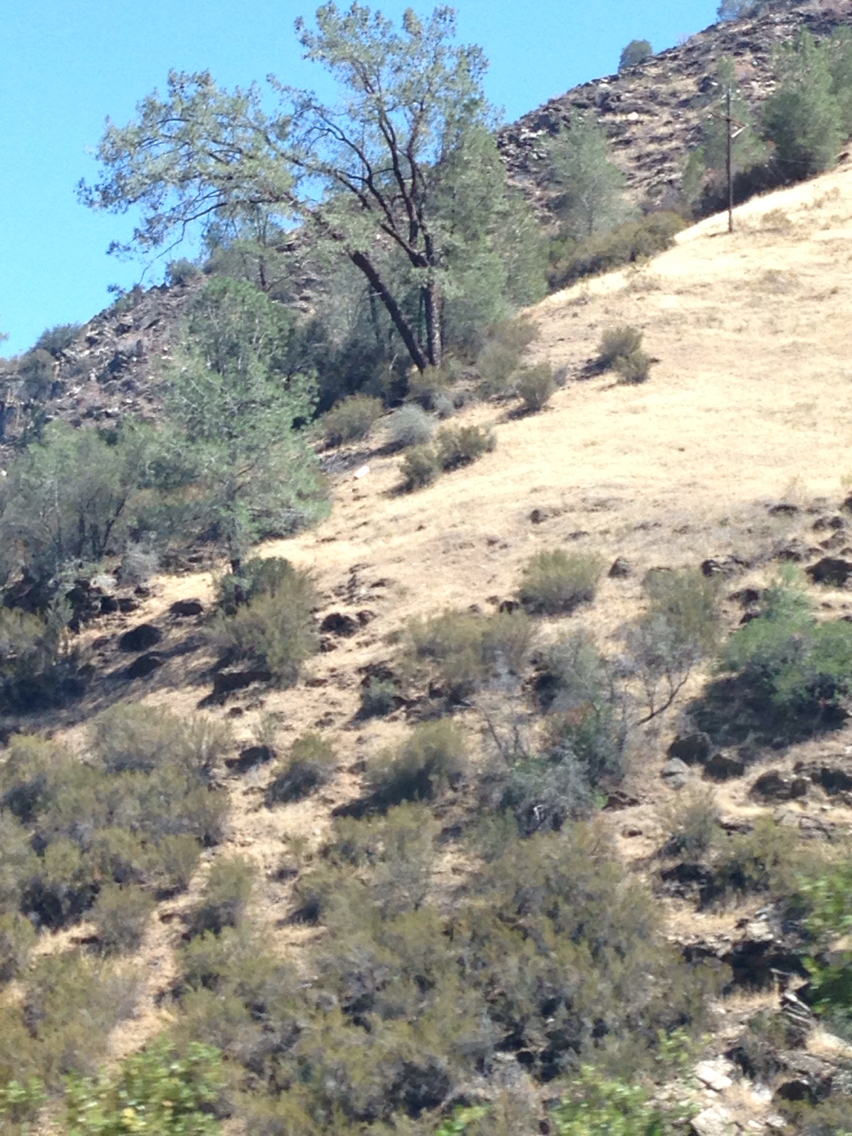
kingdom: Plantae
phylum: Tracheophyta
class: Pinopsida
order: Pinales
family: Pinaceae
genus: Pinus
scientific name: Pinus sabiniana
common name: Bull pine
